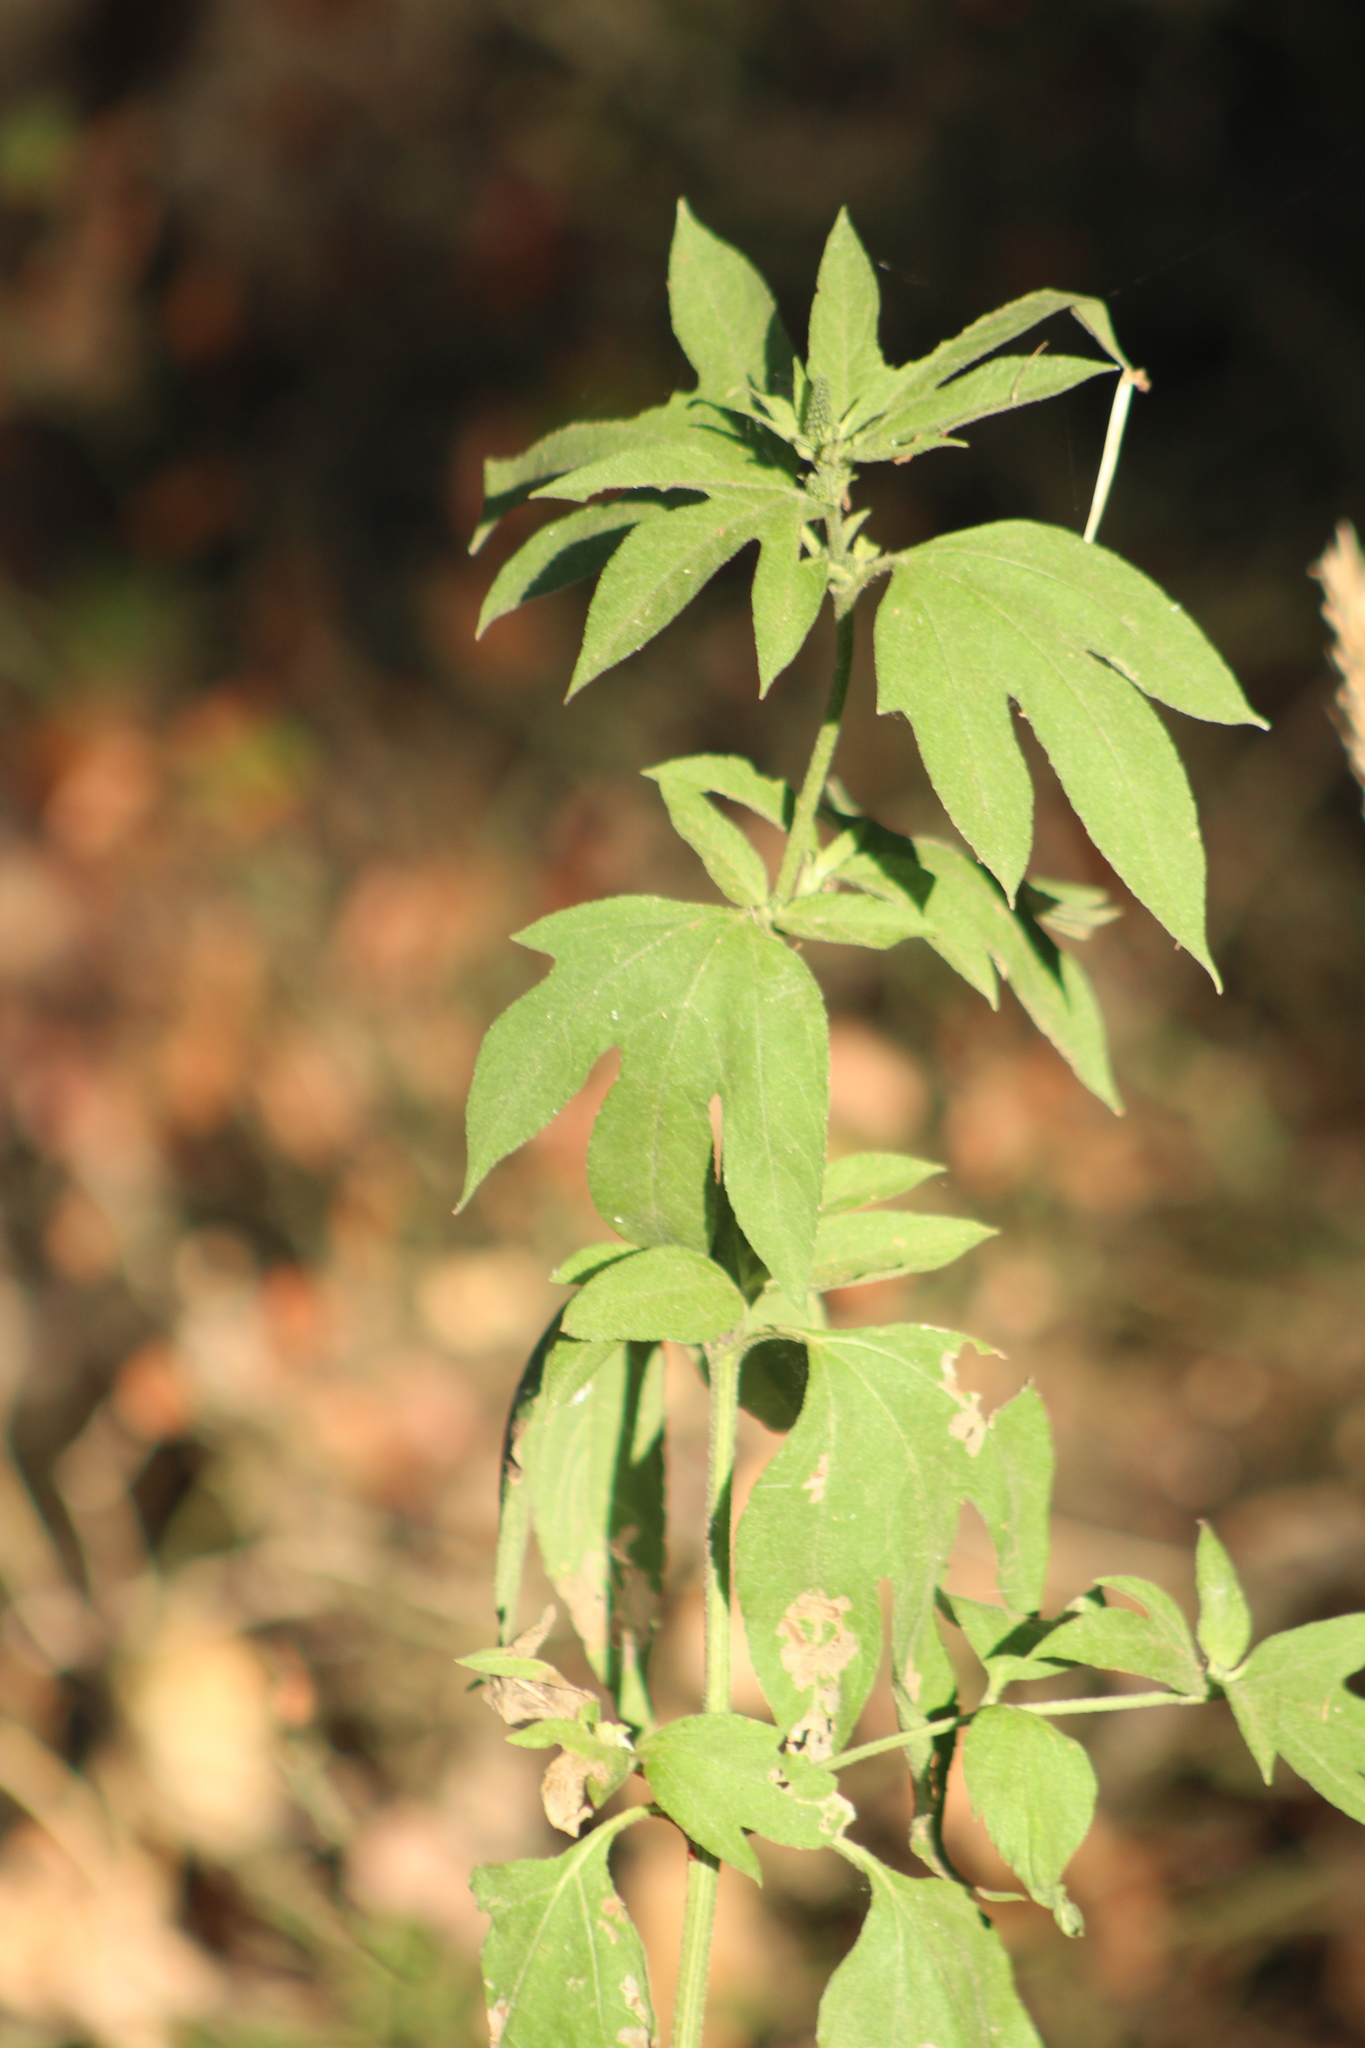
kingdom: Plantae
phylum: Tracheophyta
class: Magnoliopsida
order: Asterales
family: Asteraceae
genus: Ambrosia
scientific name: Ambrosia trifida
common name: Giant ragweed
